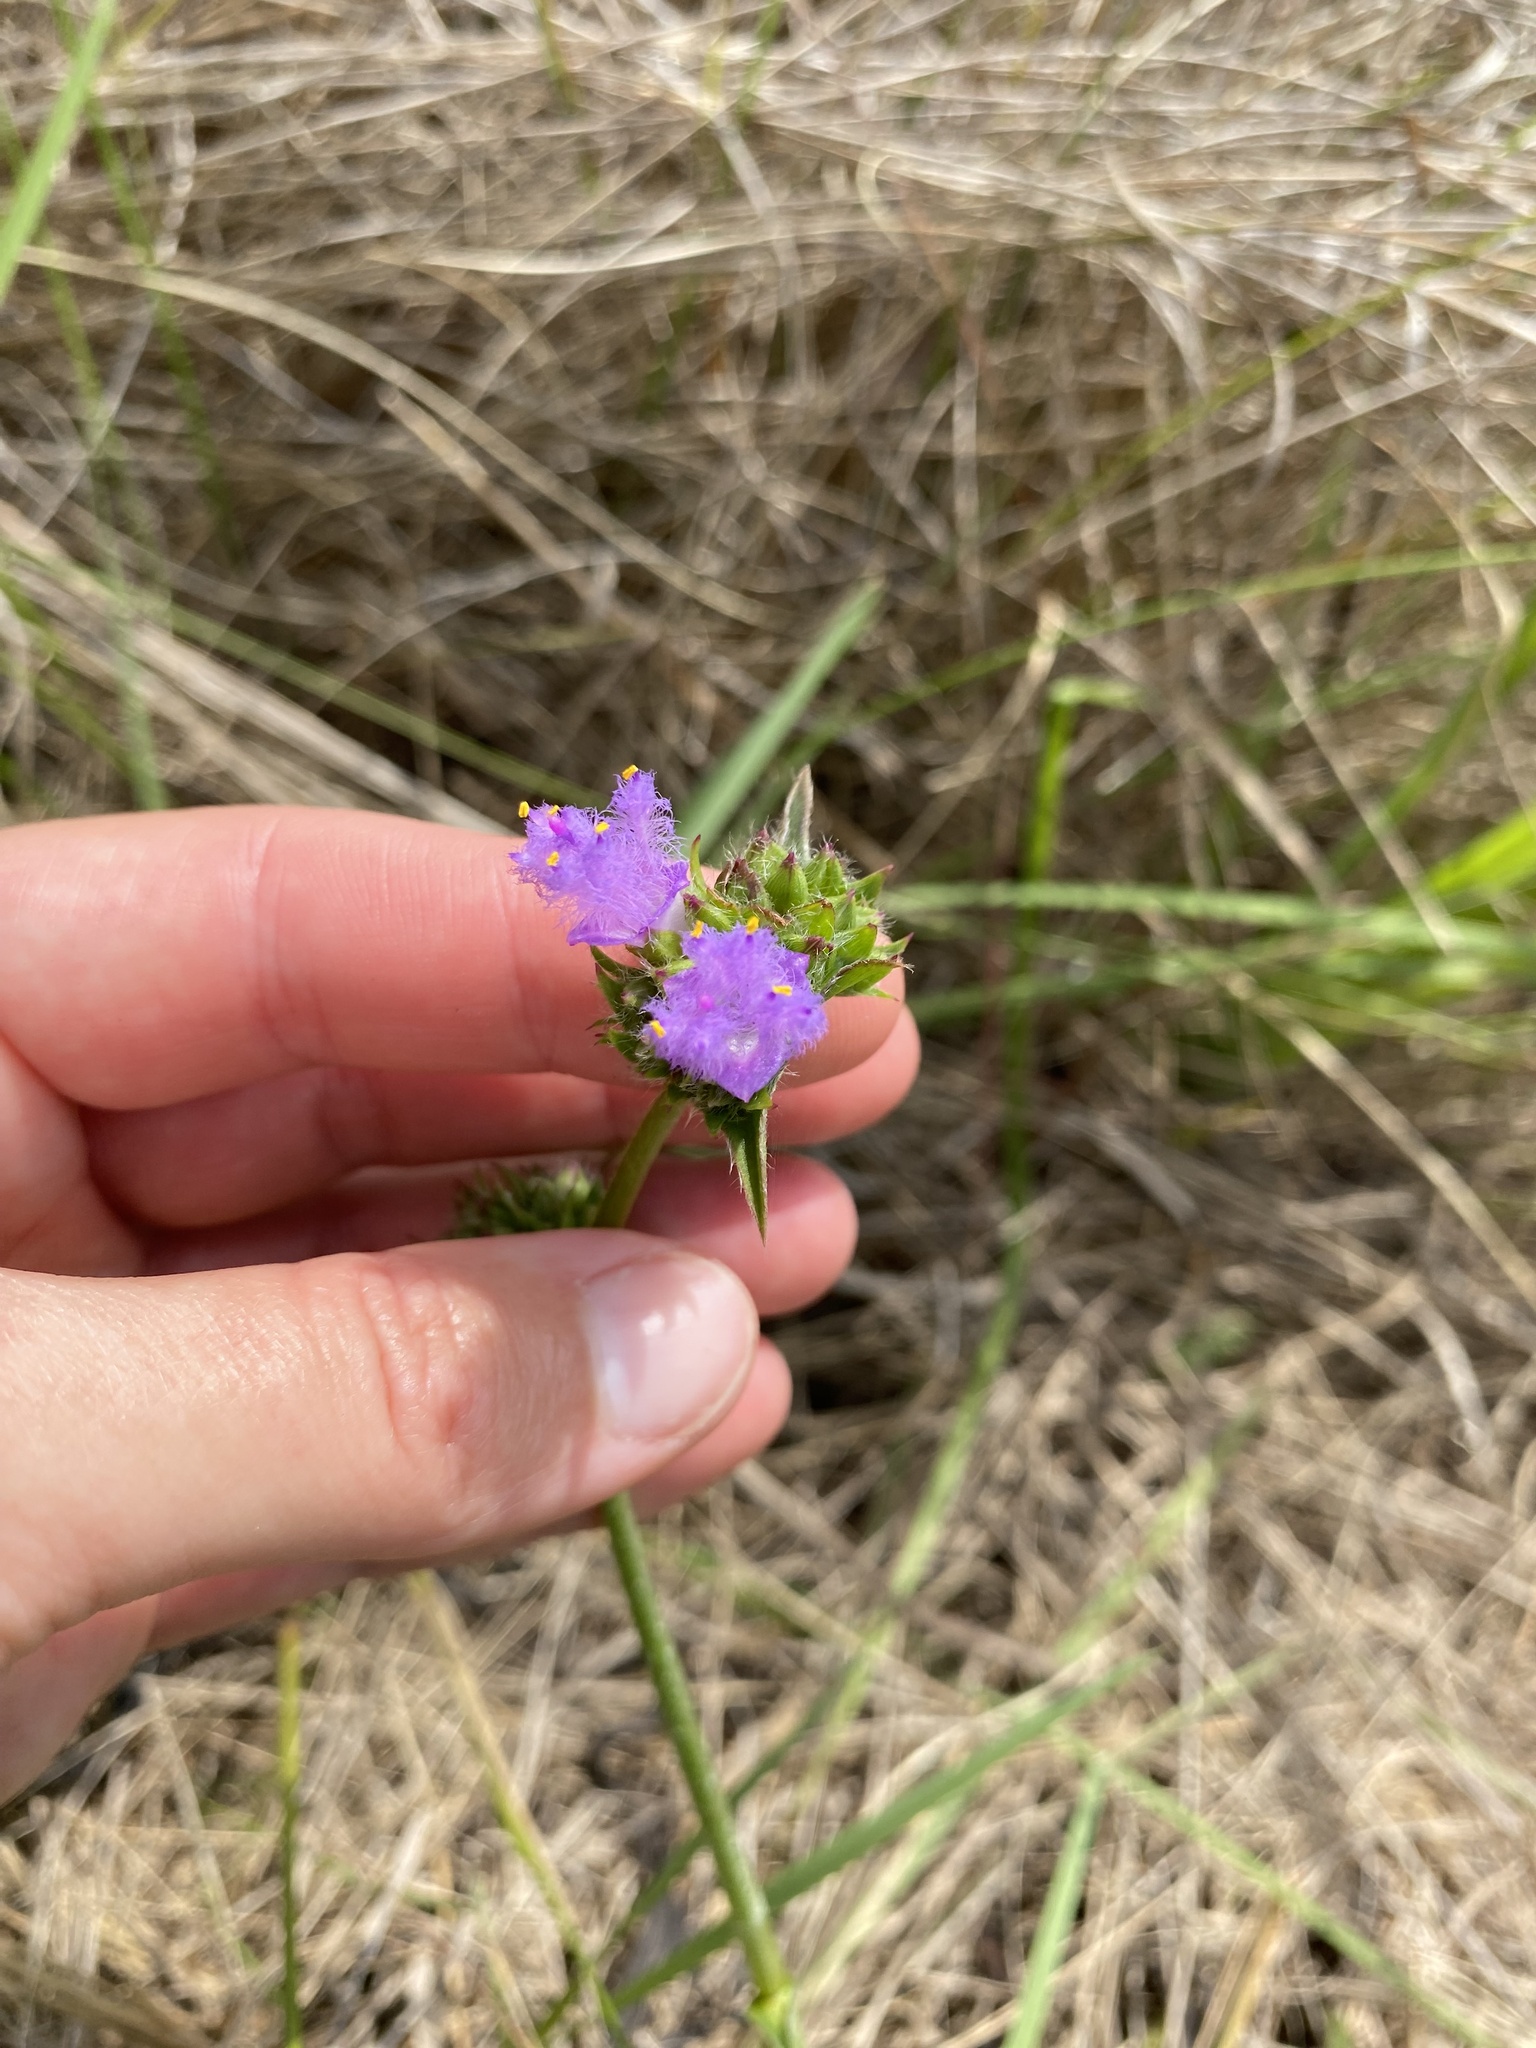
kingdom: Plantae
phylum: Tracheophyta
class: Liliopsida
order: Commelinales
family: Commelinaceae
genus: Cyanotis
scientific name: Cyanotis speciosa
